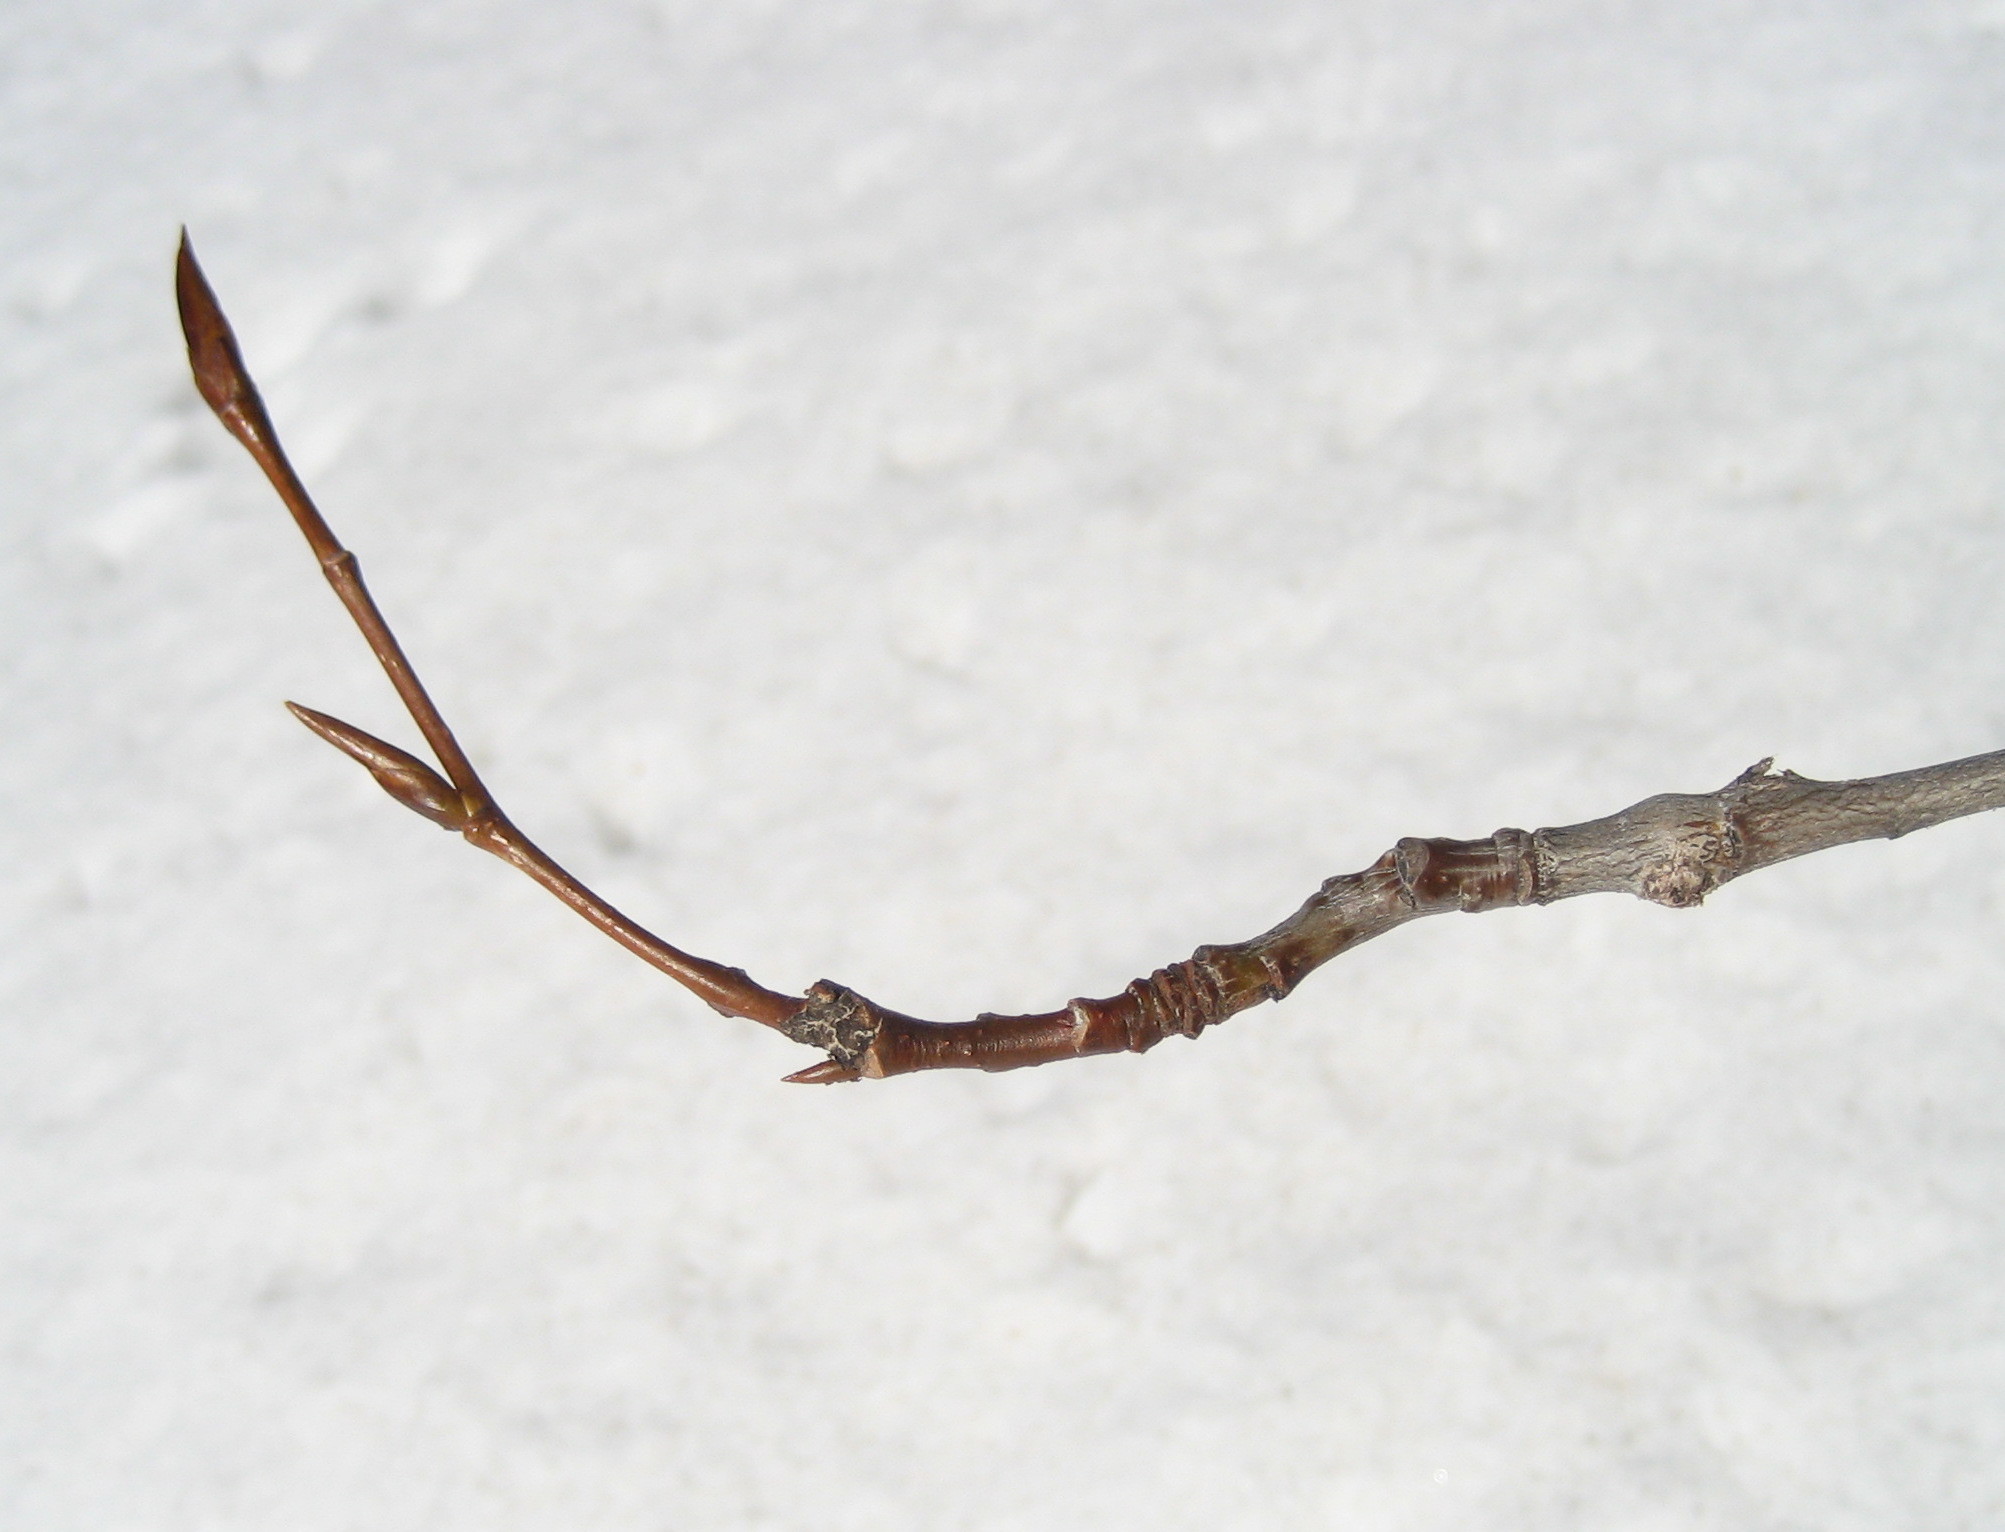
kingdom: Plantae
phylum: Tracheophyta
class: Magnoliopsida
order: Malpighiales
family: Salicaceae
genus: Populus
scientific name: Populus balsamifera
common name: Balsam poplar
